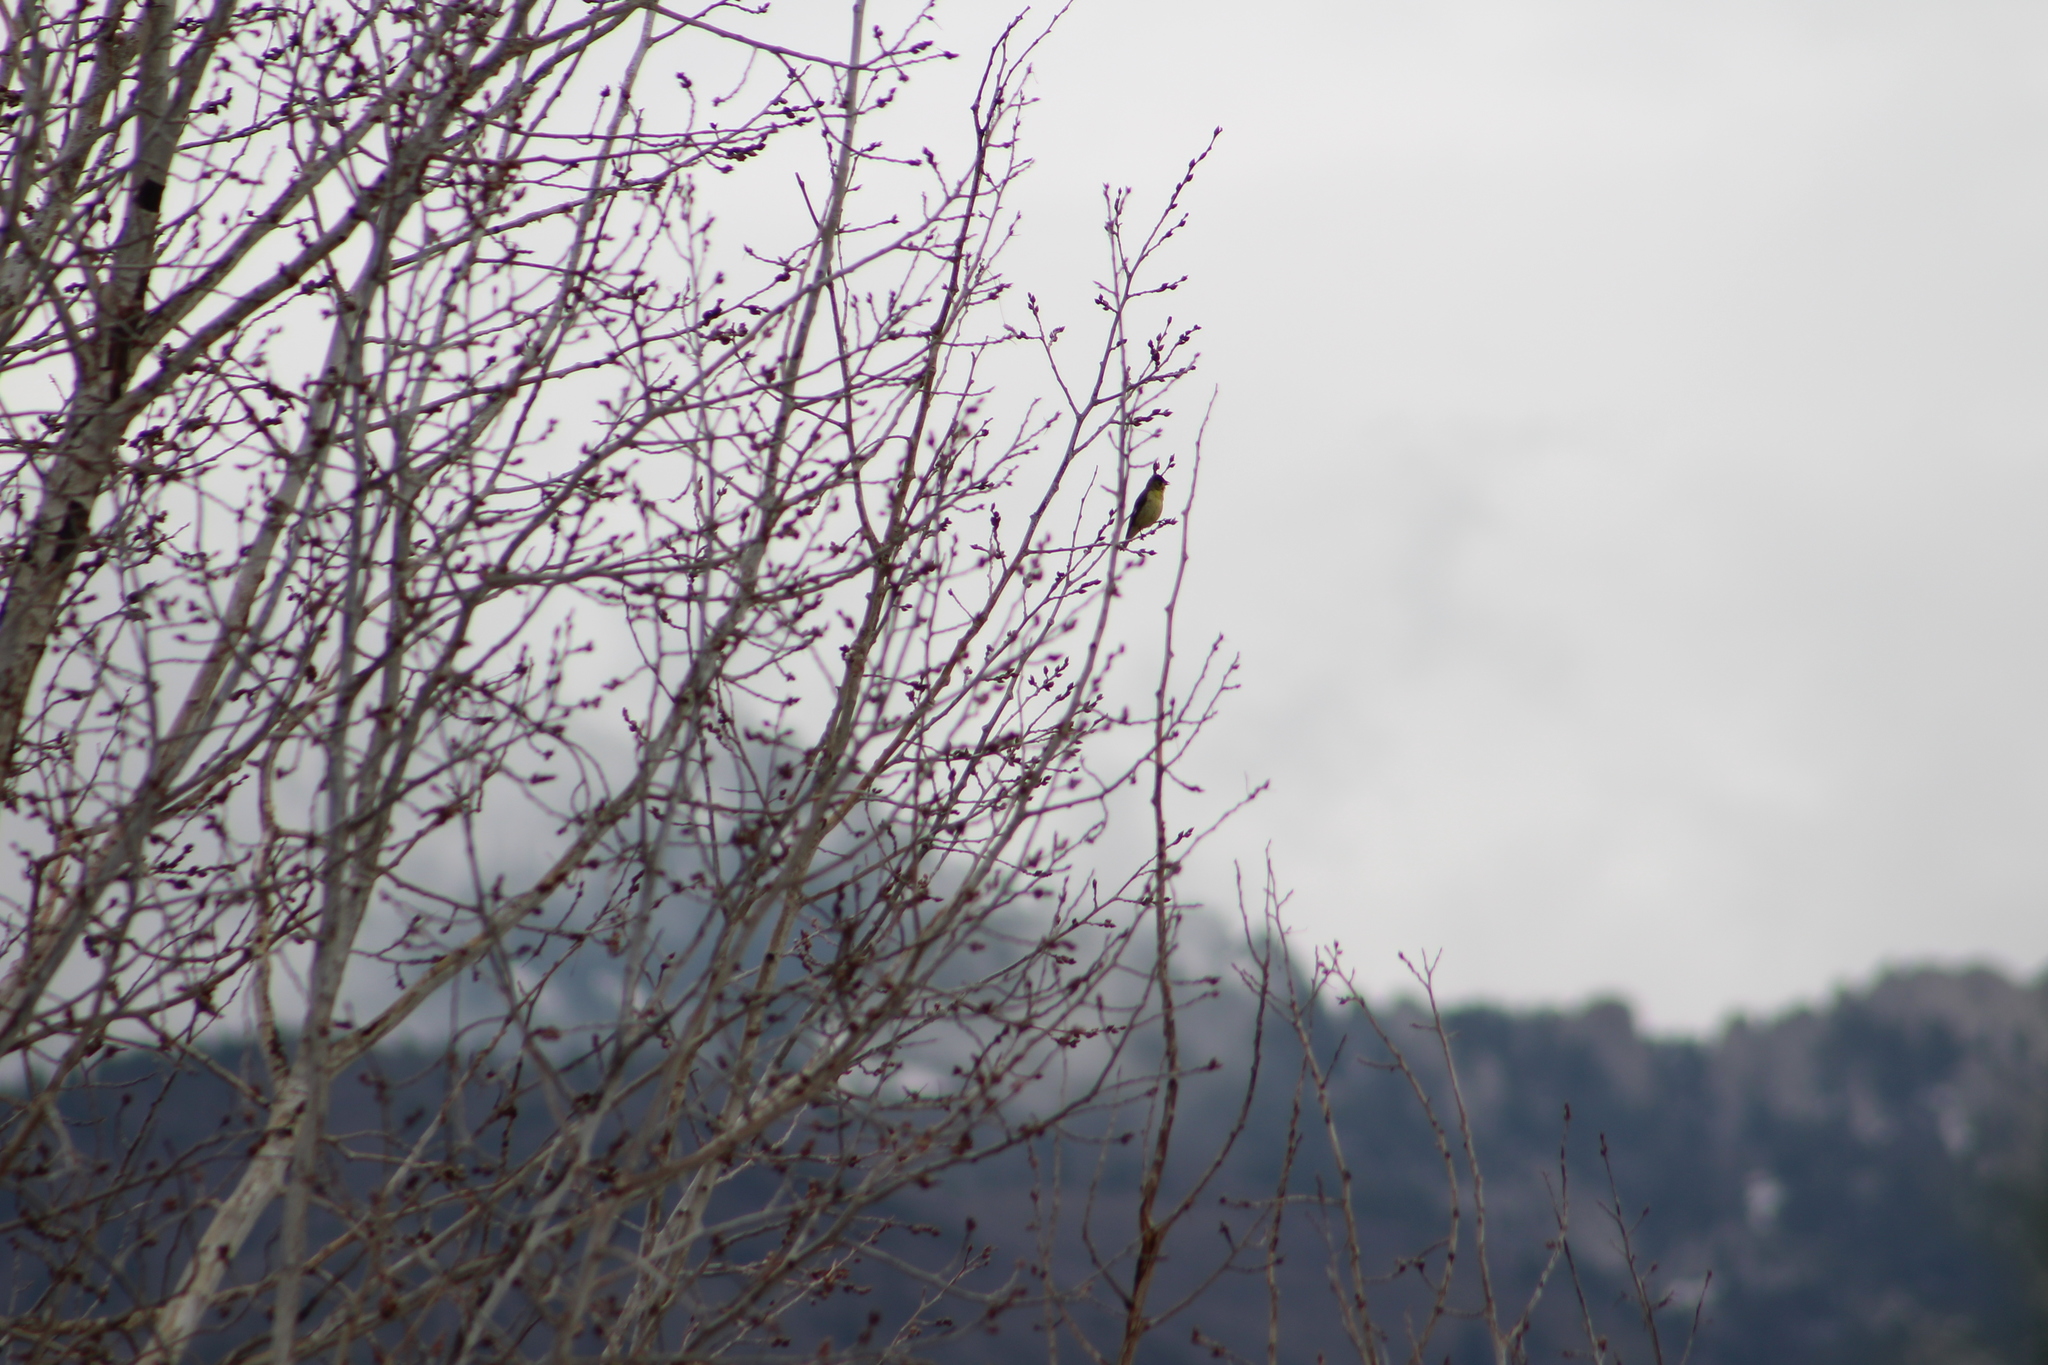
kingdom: Animalia
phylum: Chordata
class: Aves
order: Passeriformes
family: Fringillidae
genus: Spinus
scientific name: Spinus psaltria
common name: Lesser goldfinch
